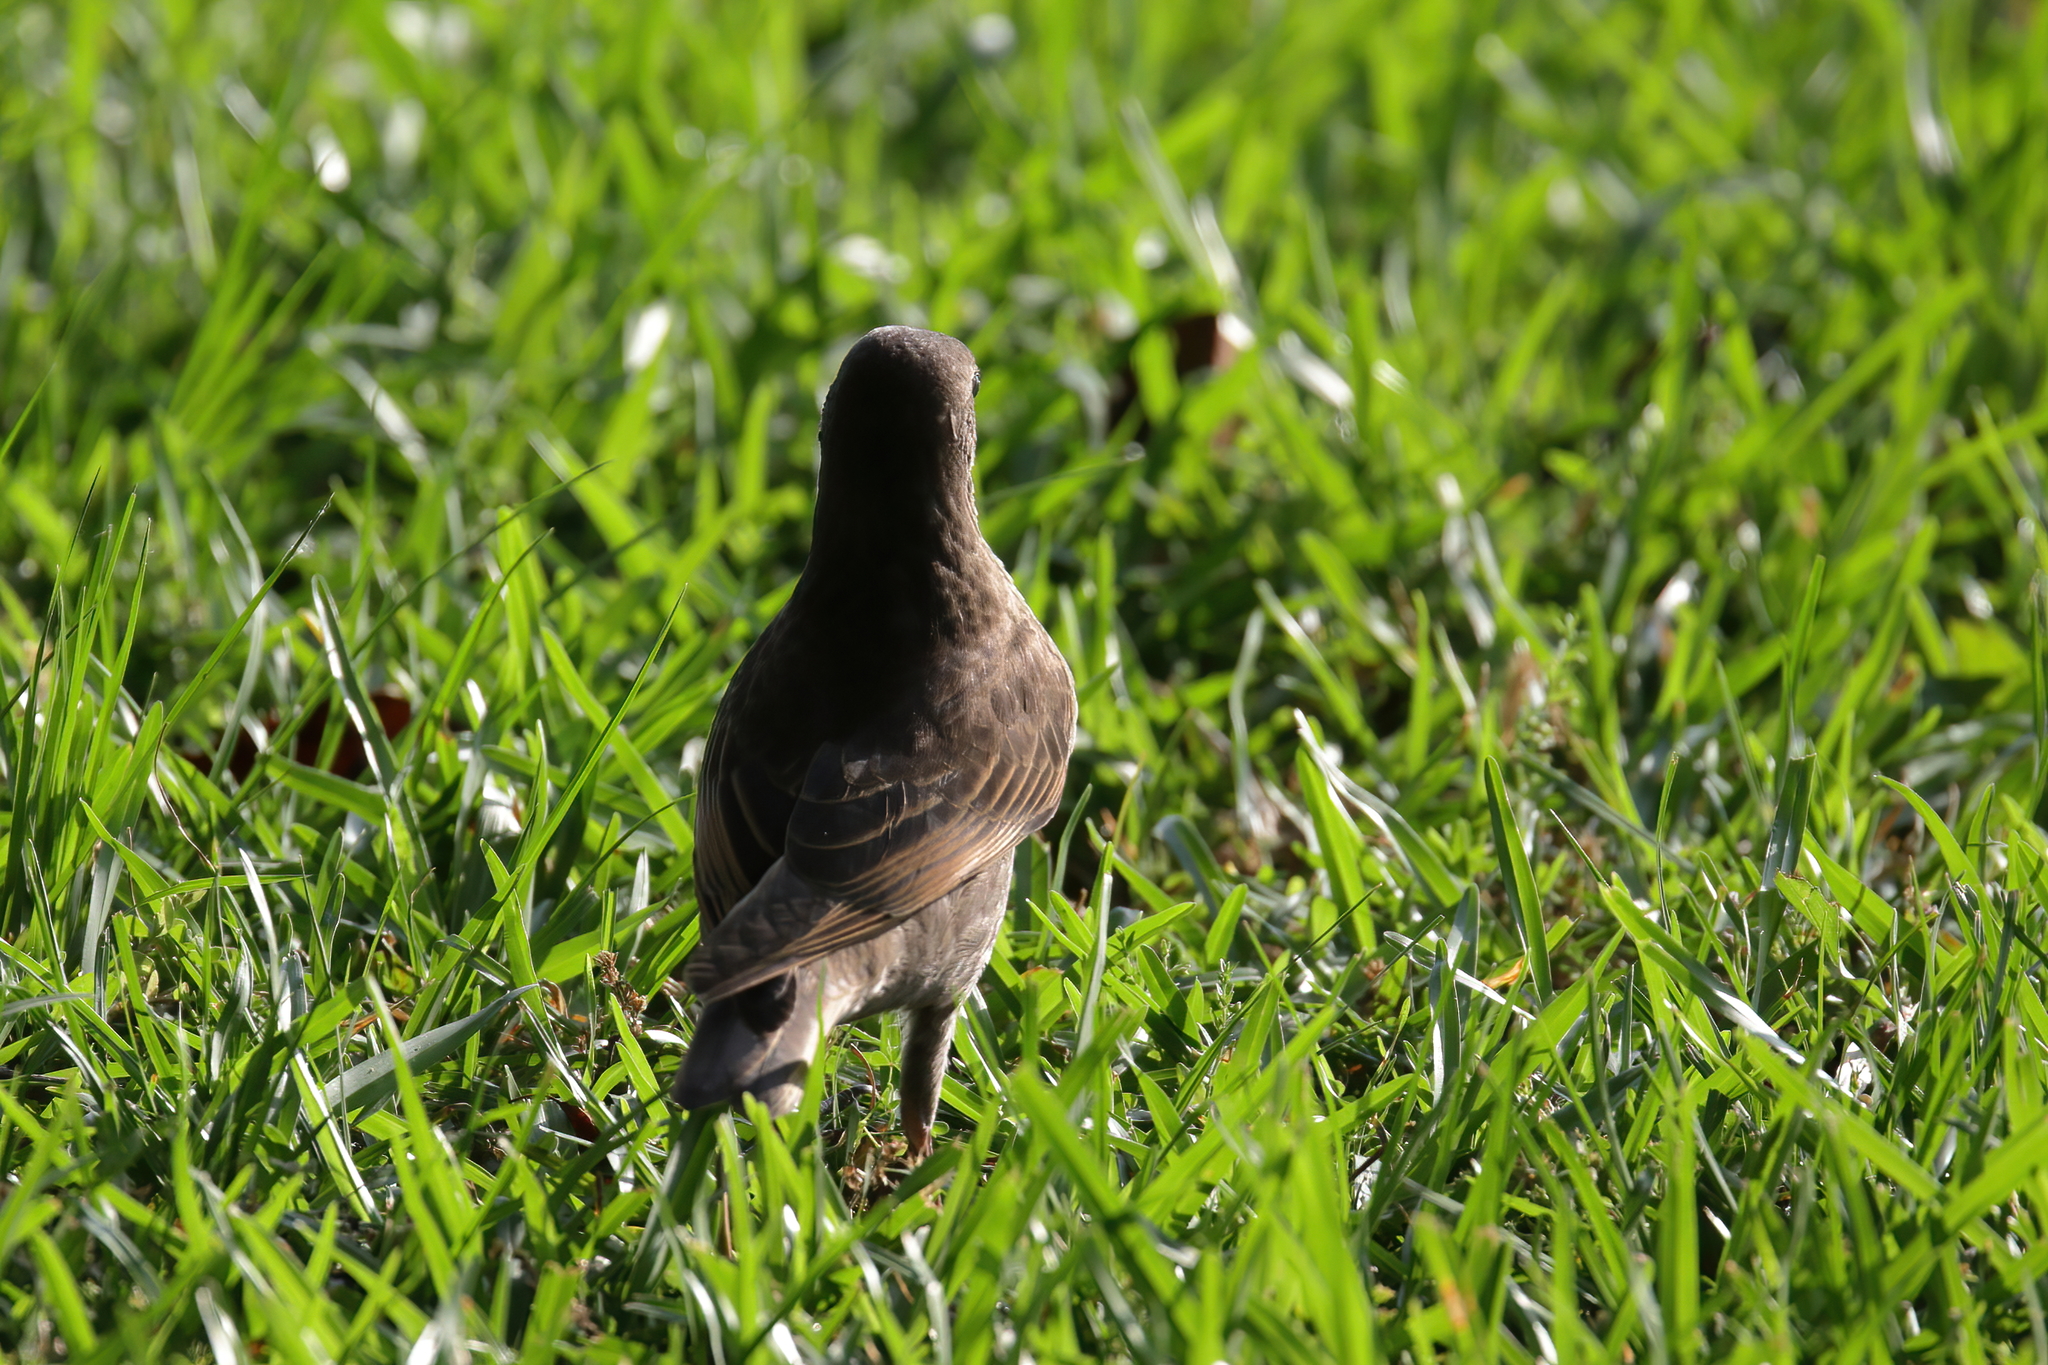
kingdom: Animalia
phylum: Chordata
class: Aves
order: Passeriformes
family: Sturnidae
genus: Sturnus
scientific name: Sturnus vulgaris
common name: Common starling
